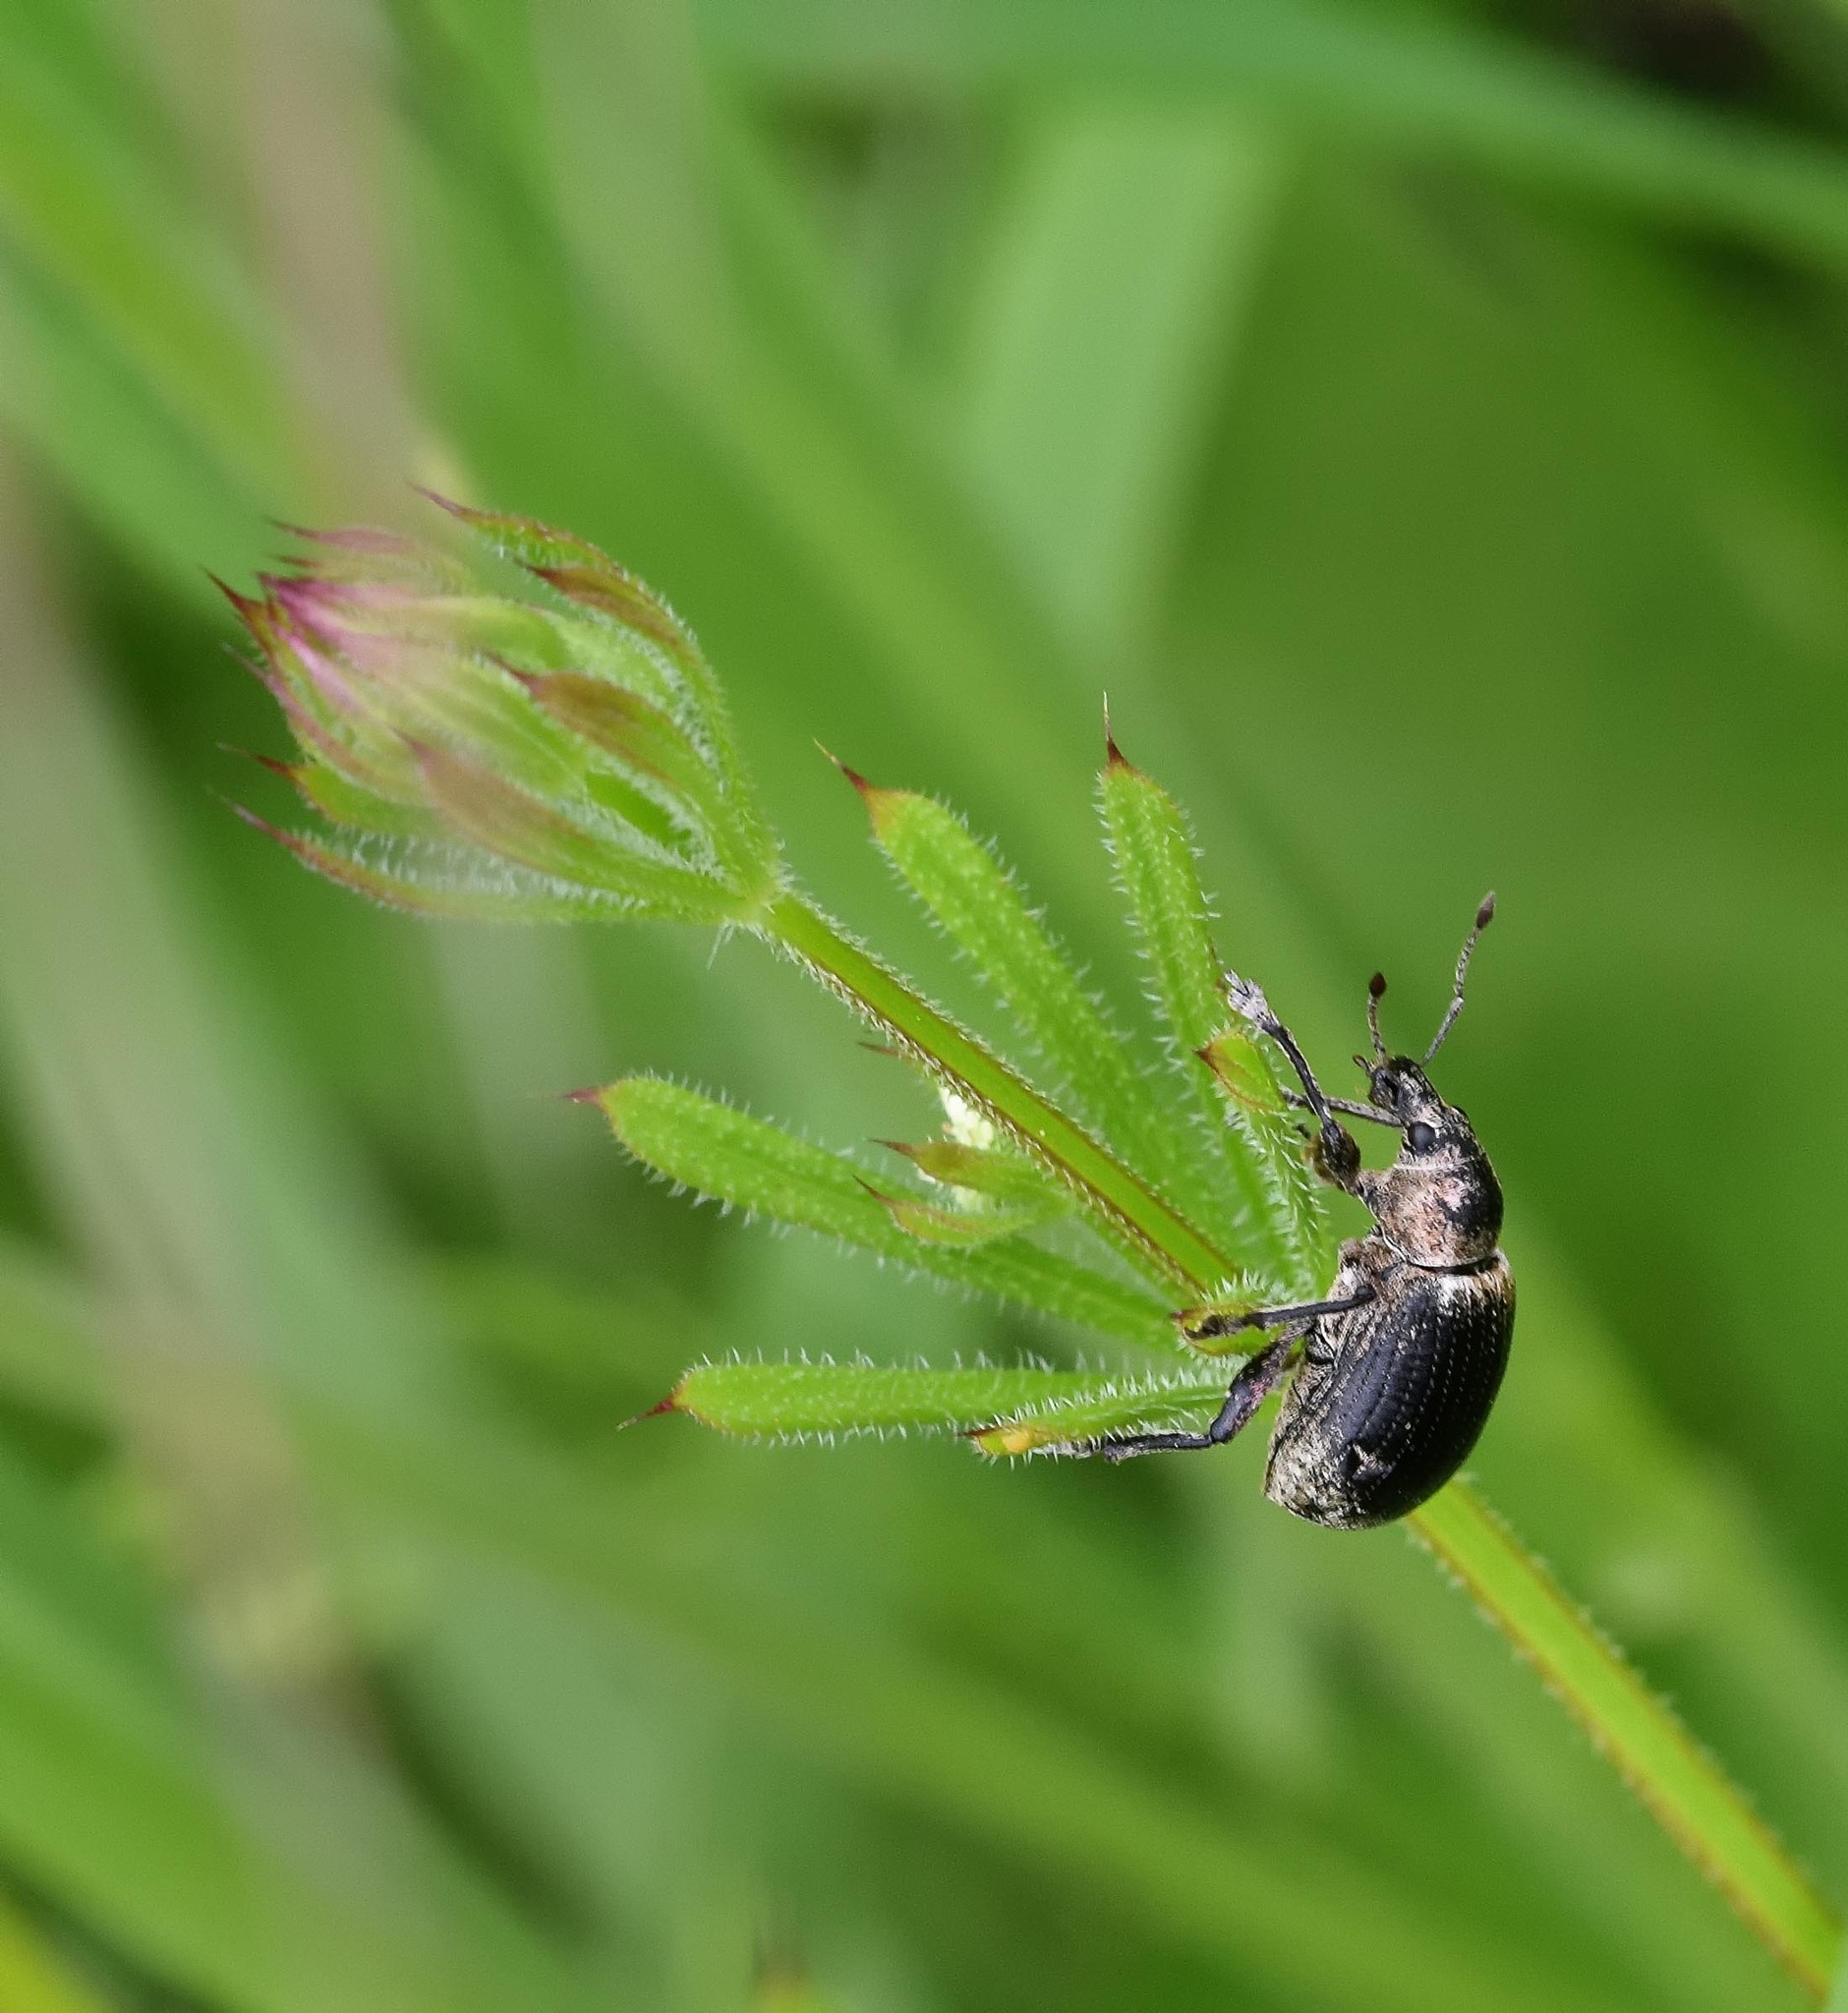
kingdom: Animalia
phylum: Arthropoda
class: Insecta
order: Coleoptera
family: Curculionidae
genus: Liophloeus
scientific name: Liophloeus tessulatus
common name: Weevil
